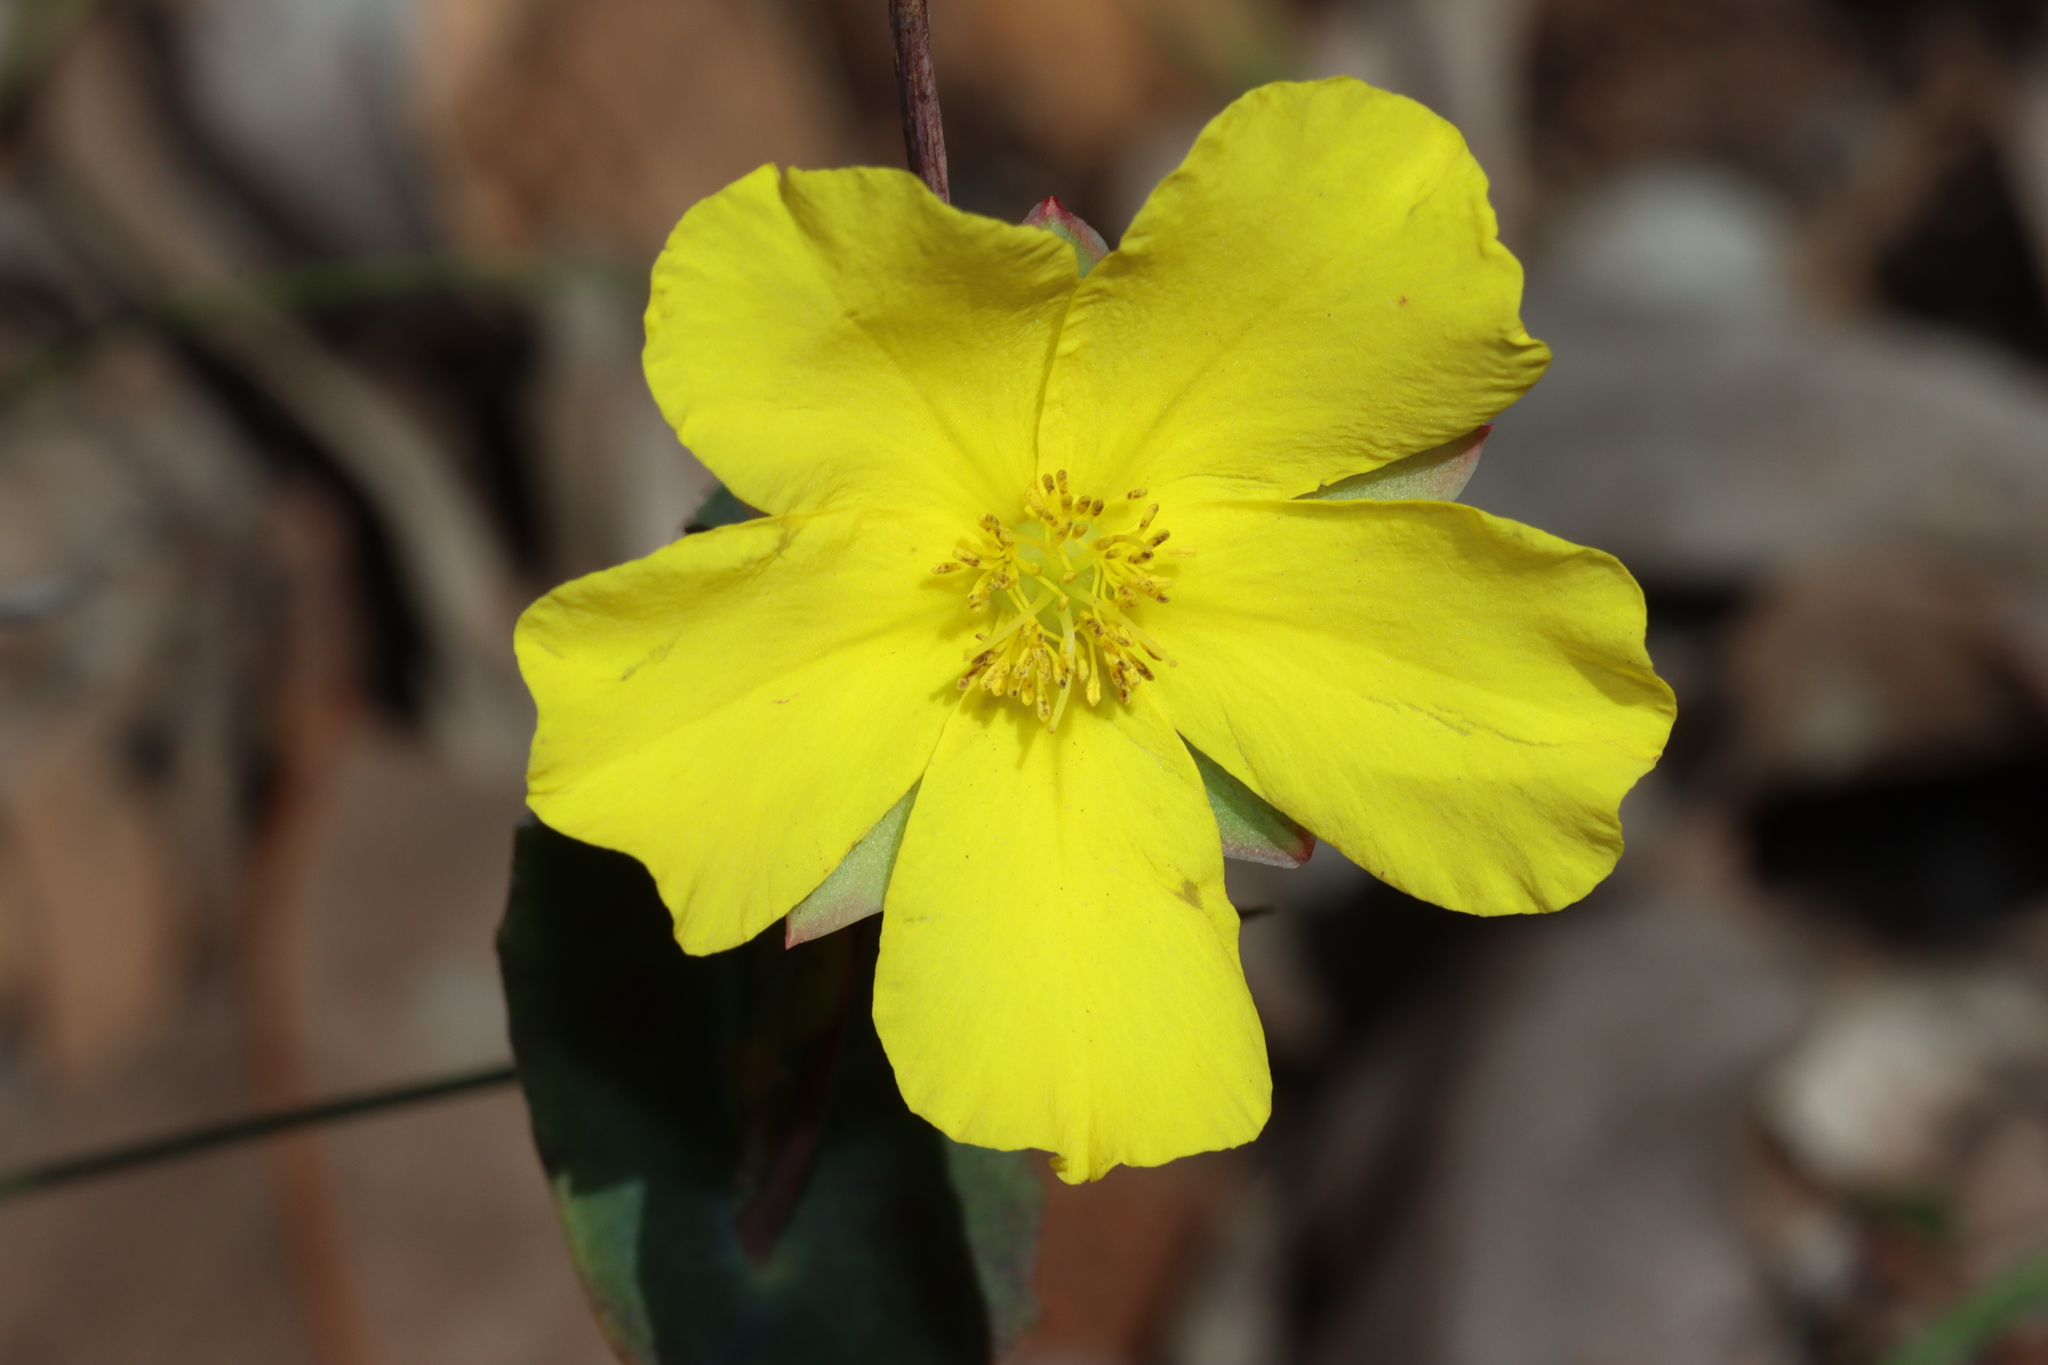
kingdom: Plantae
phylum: Tracheophyta
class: Magnoliopsida
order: Dilleniales
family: Dilleniaceae
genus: Hibbertia
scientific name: Hibbertia cunninghamii
